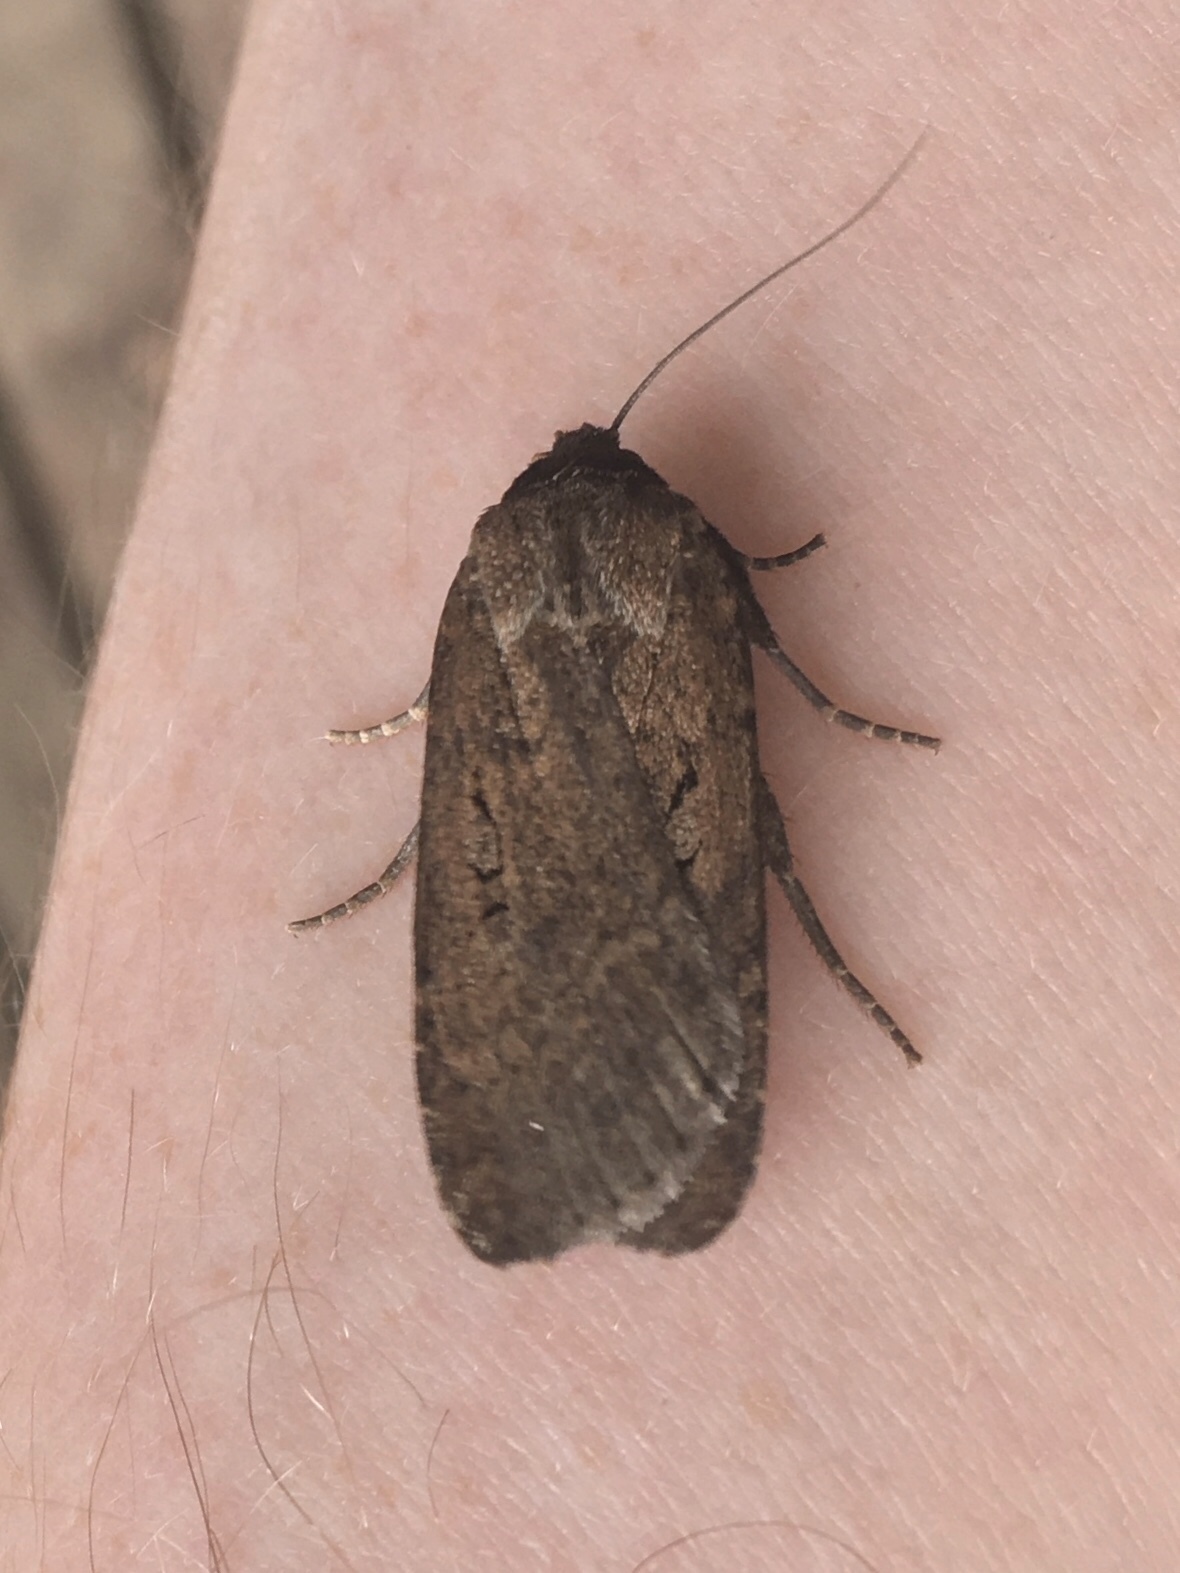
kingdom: Animalia
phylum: Arthropoda
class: Insecta
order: Lepidoptera
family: Noctuidae
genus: Spaelotis
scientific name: Spaelotis clandestina
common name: Clandestine dart
